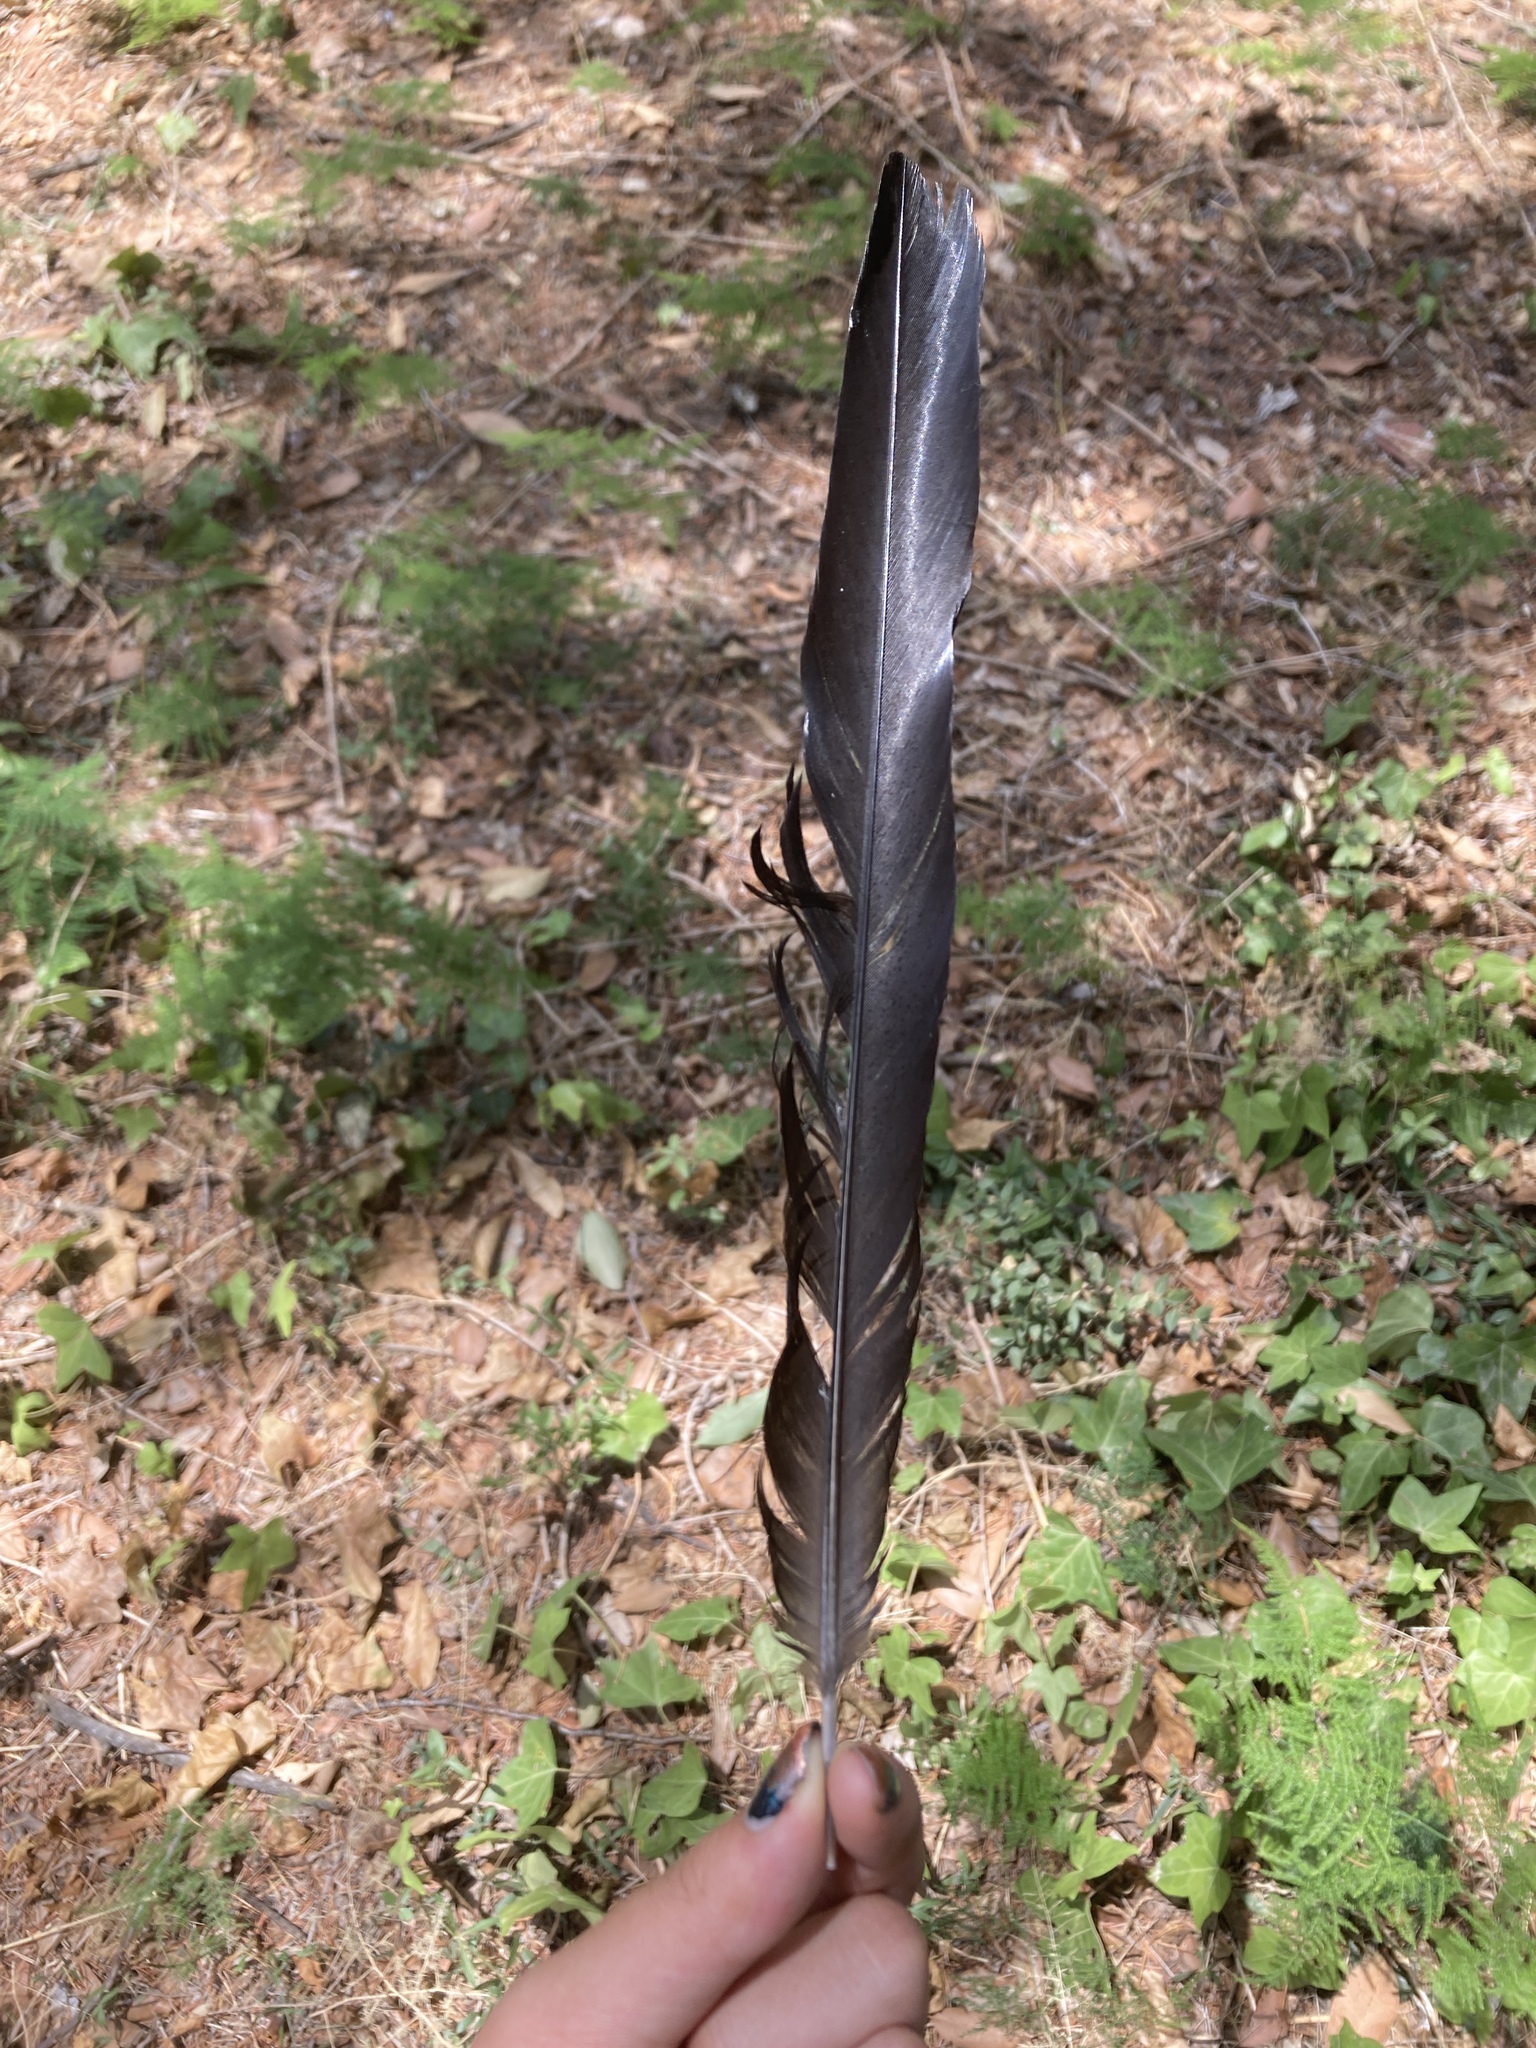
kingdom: Animalia
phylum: Chordata
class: Aves
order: Passeriformes
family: Corvidae
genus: Pica
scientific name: Pica pica
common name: Eurasian magpie
